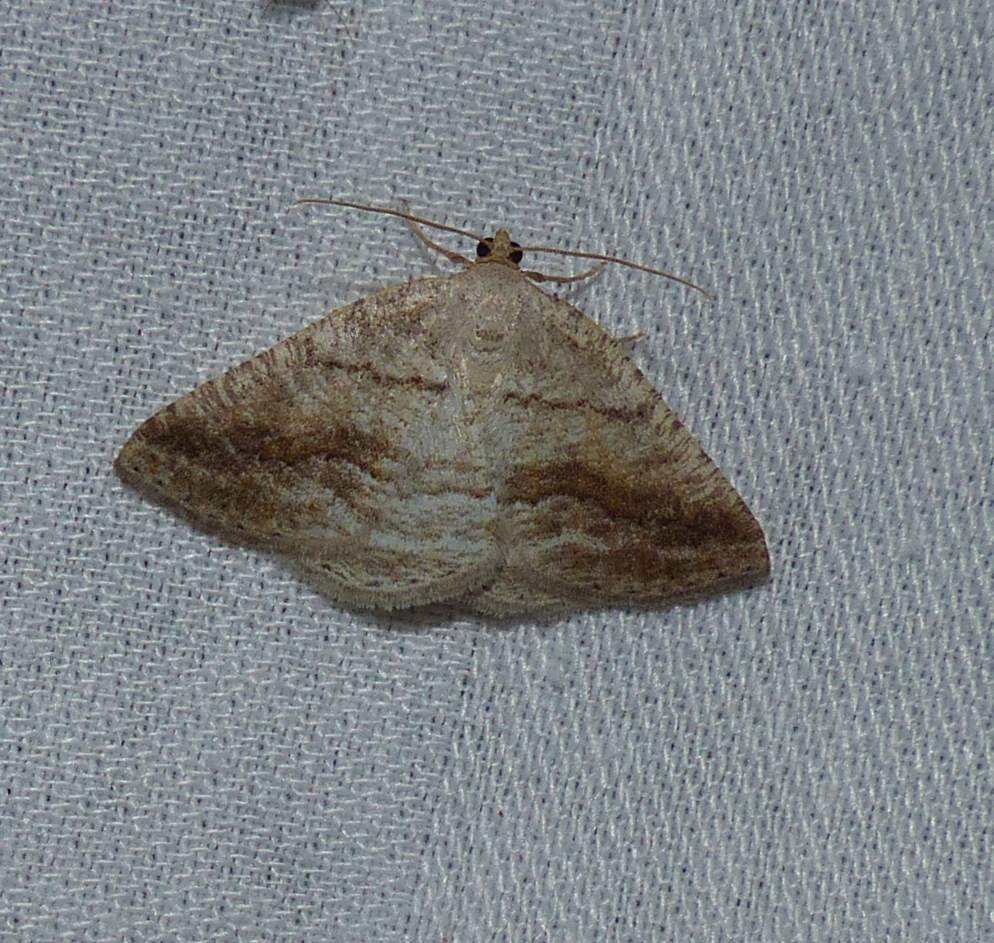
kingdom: Animalia
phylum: Arthropoda
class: Insecta
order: Lepidoptera
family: Geometridae
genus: Tacparia
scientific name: Tacparia detersata
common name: Pale alder moth
